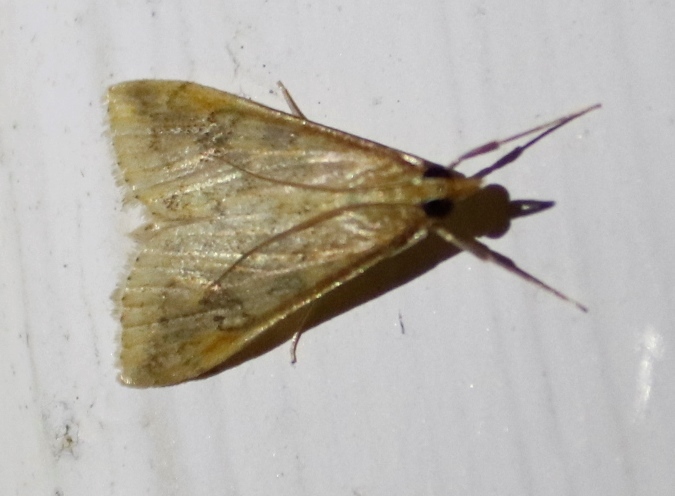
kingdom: Animalia
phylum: Arthropoda
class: Insecta
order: Lepidoptera
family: Crambidae
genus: Udea
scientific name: Udea ferrugalis
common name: Rusty dot
